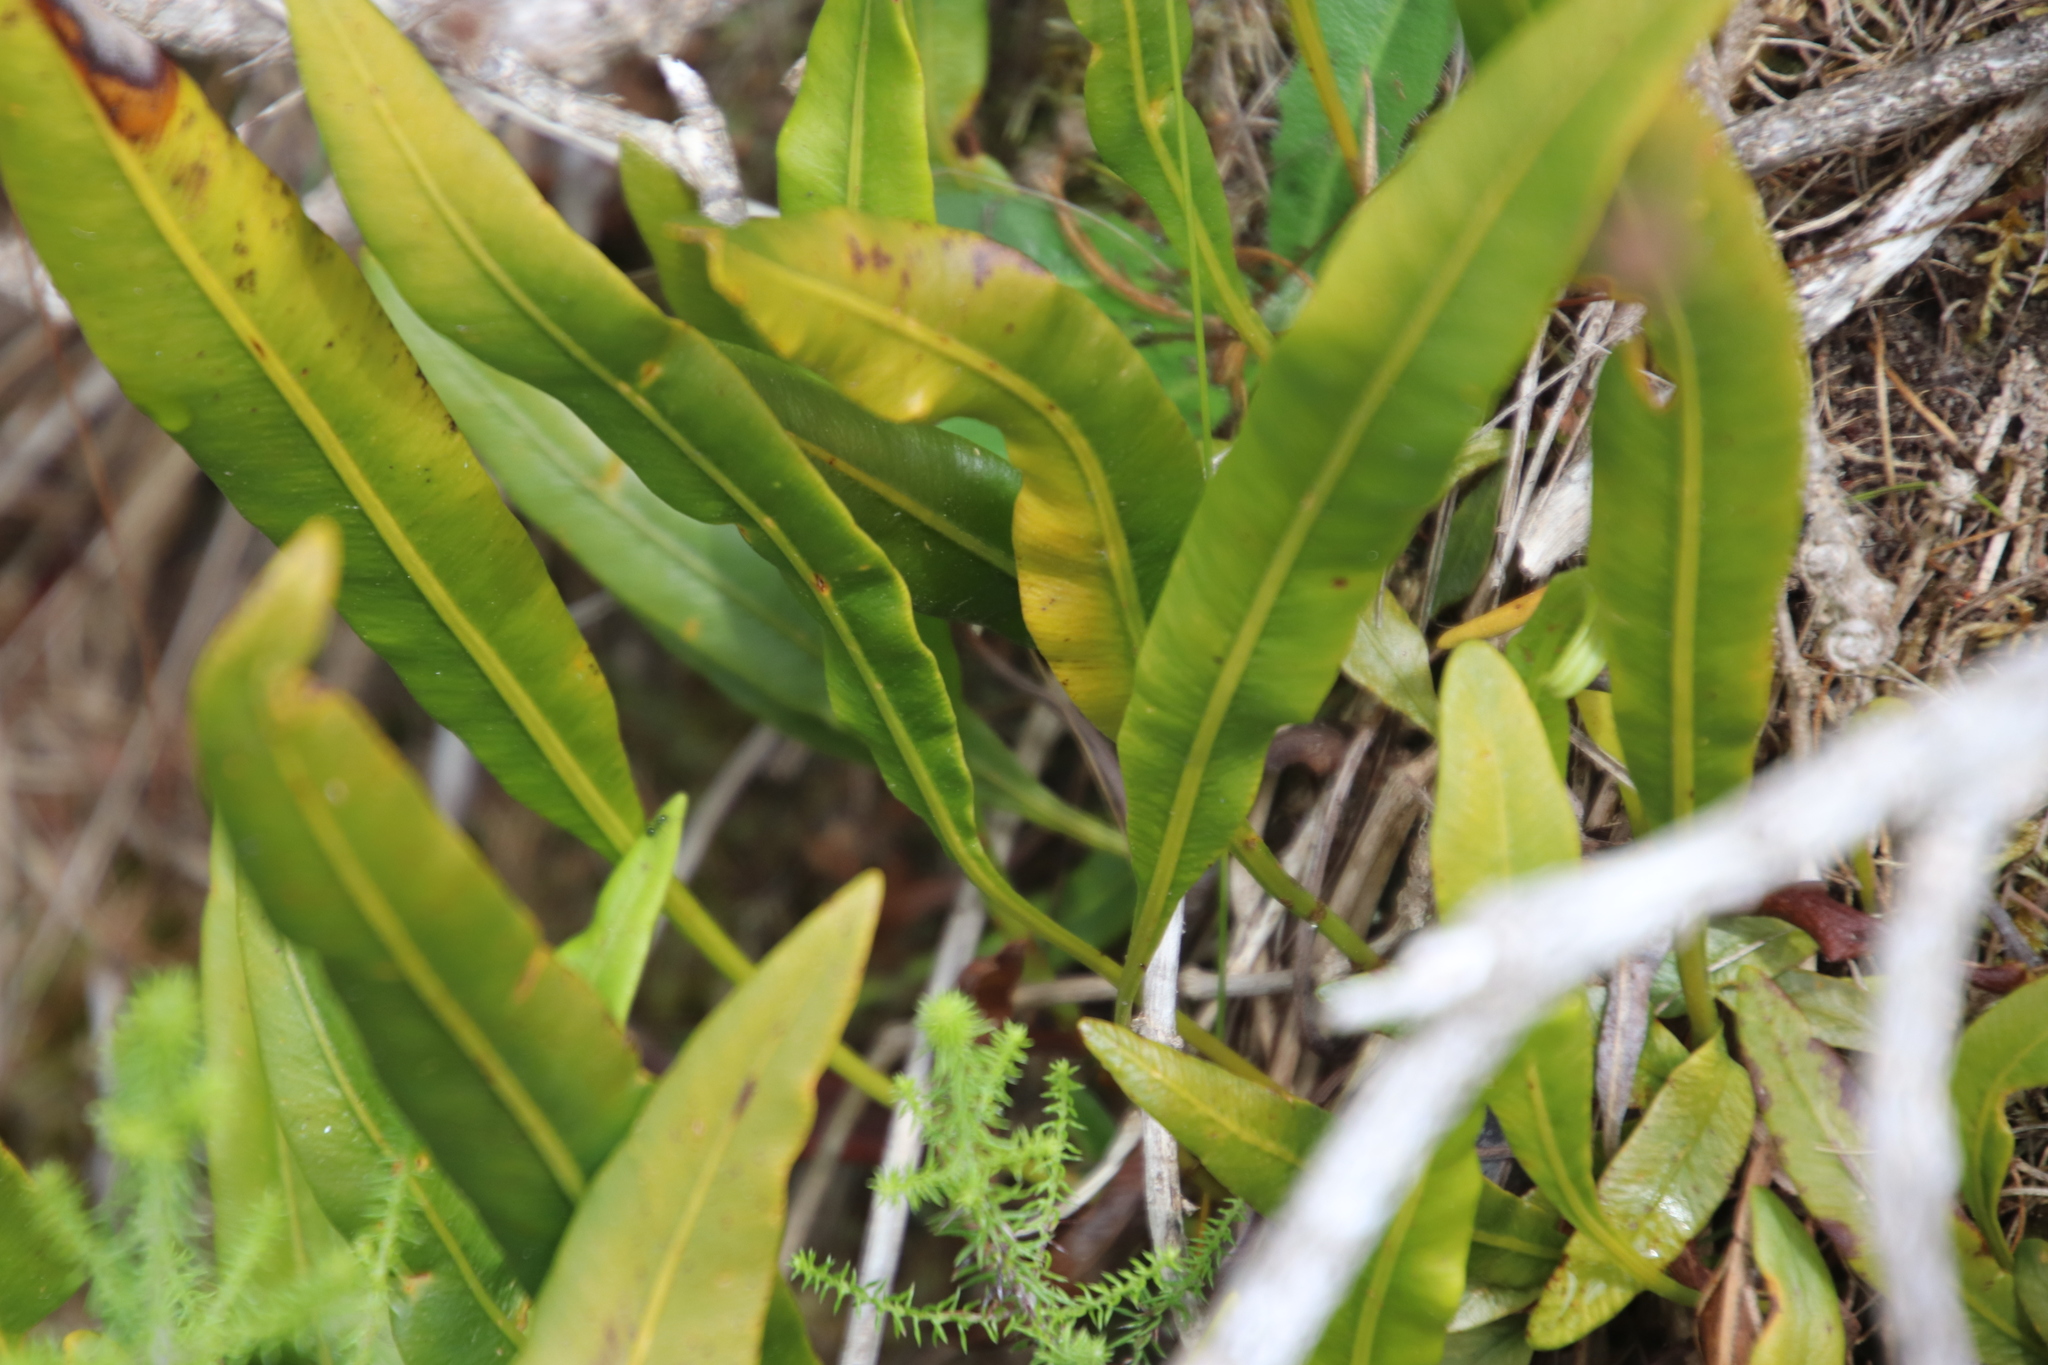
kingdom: Plantae
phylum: Tracheophyta
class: Polypodiopsida
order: Polypodiales
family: Dryopteridaceae
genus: Elaphoglossum
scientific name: Elaphoglossum acrostichoides
